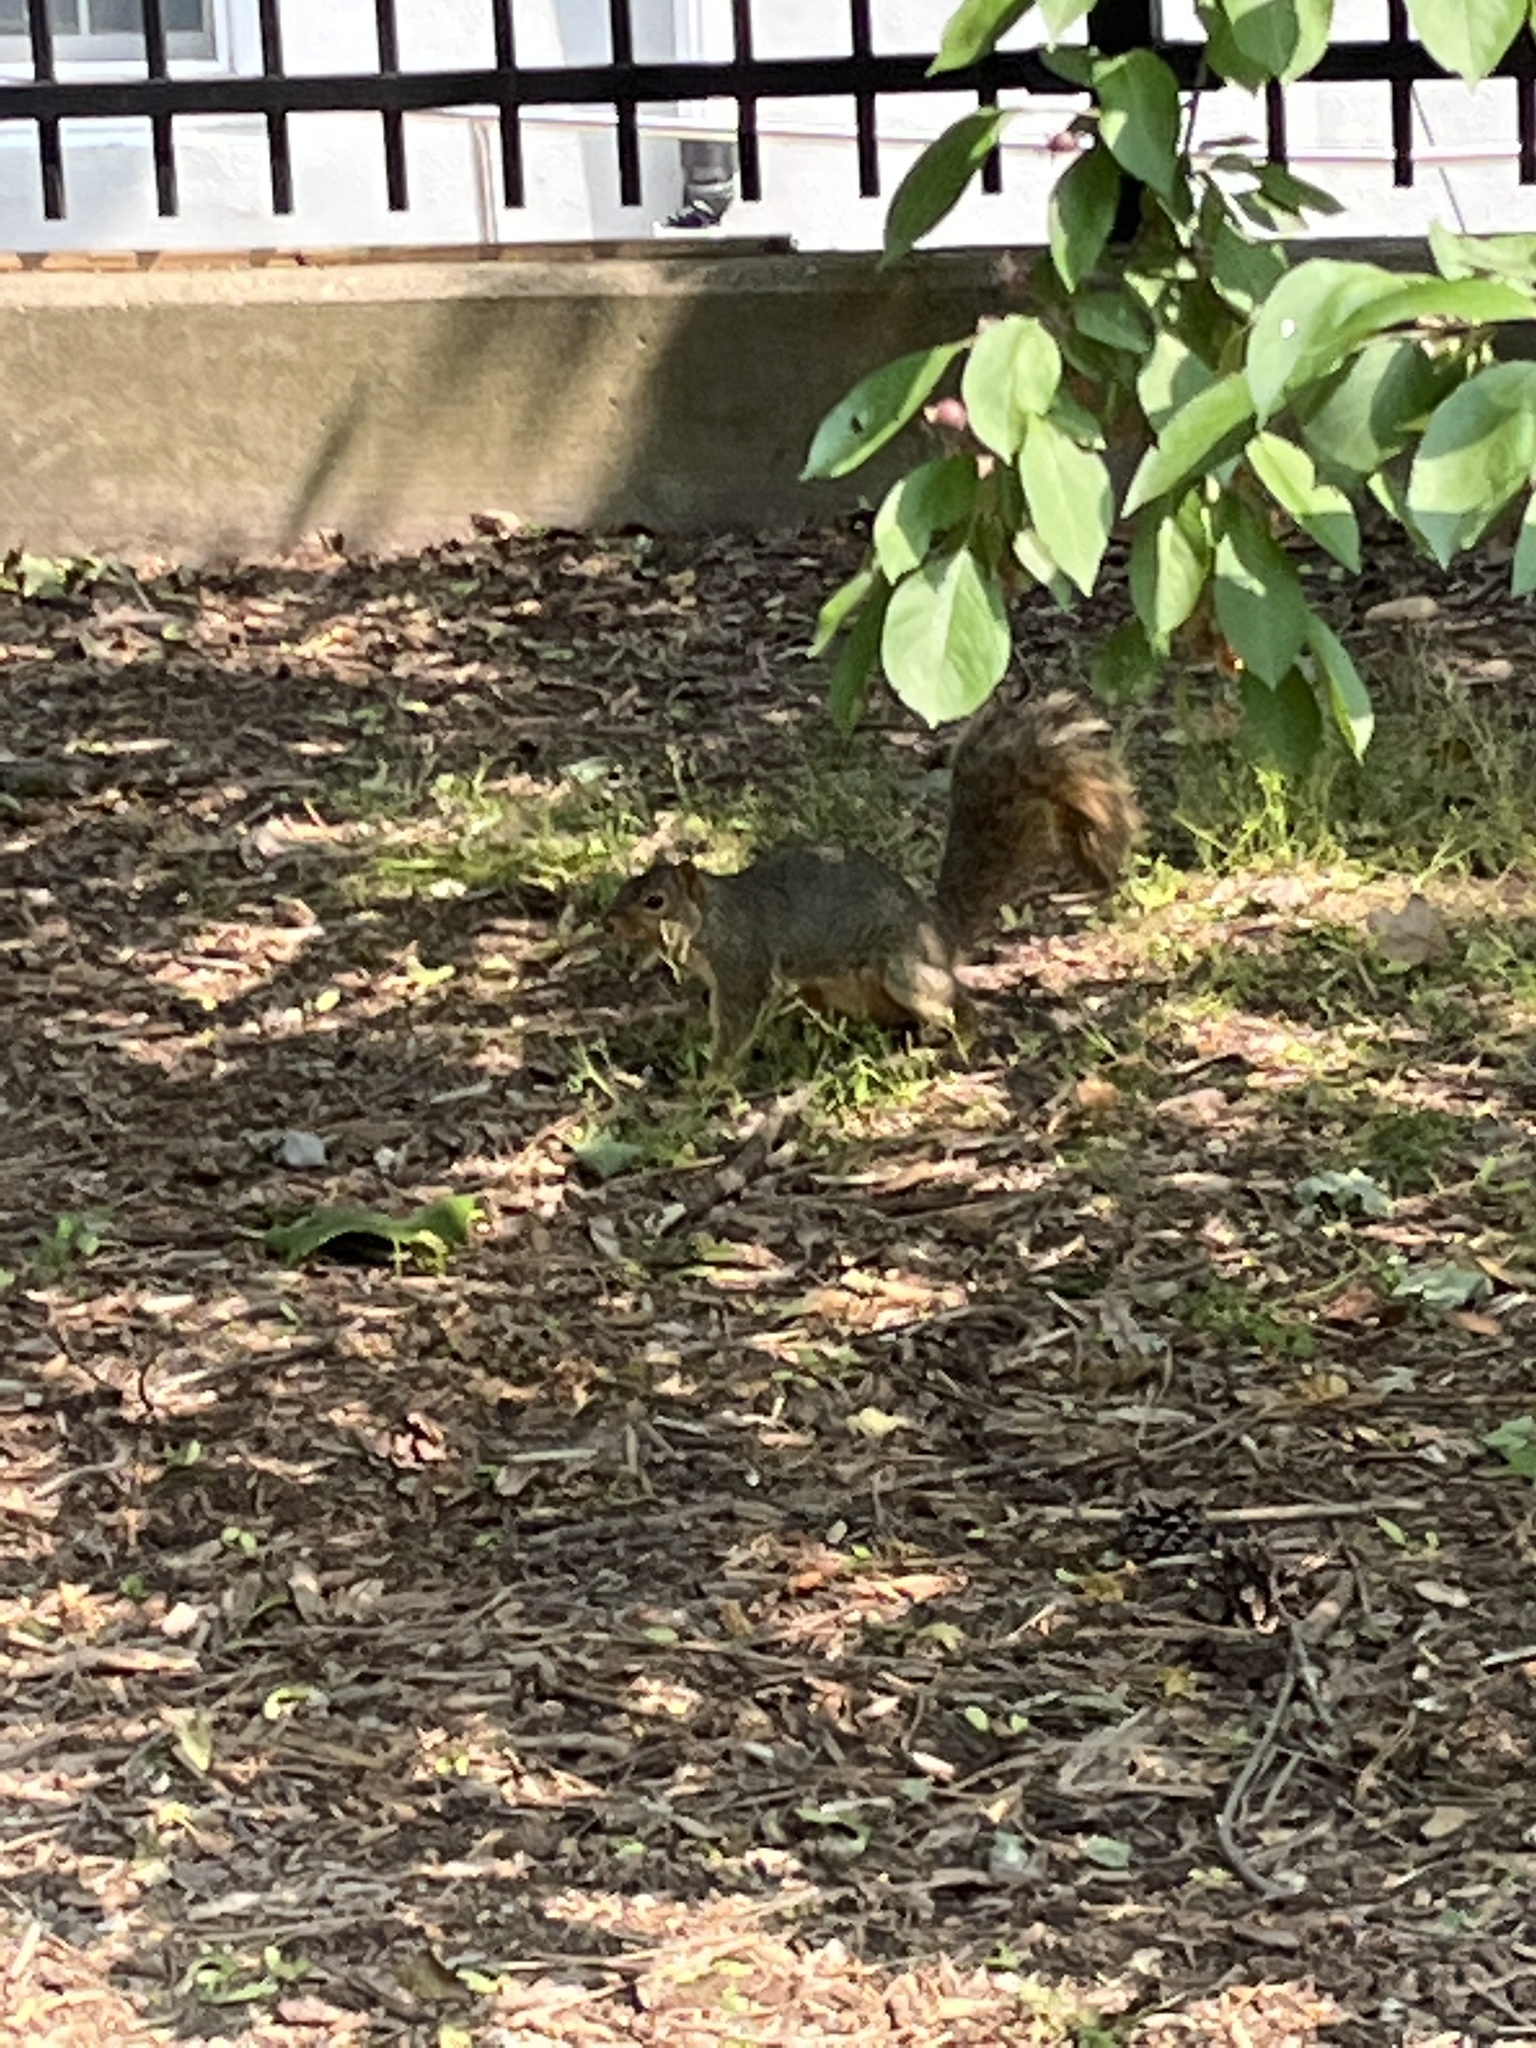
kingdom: Animalia
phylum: Chordata
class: Mammalia
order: Rodentia
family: Sciuridae
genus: Sciurus
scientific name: Sciurus niger
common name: Fox squirrel
